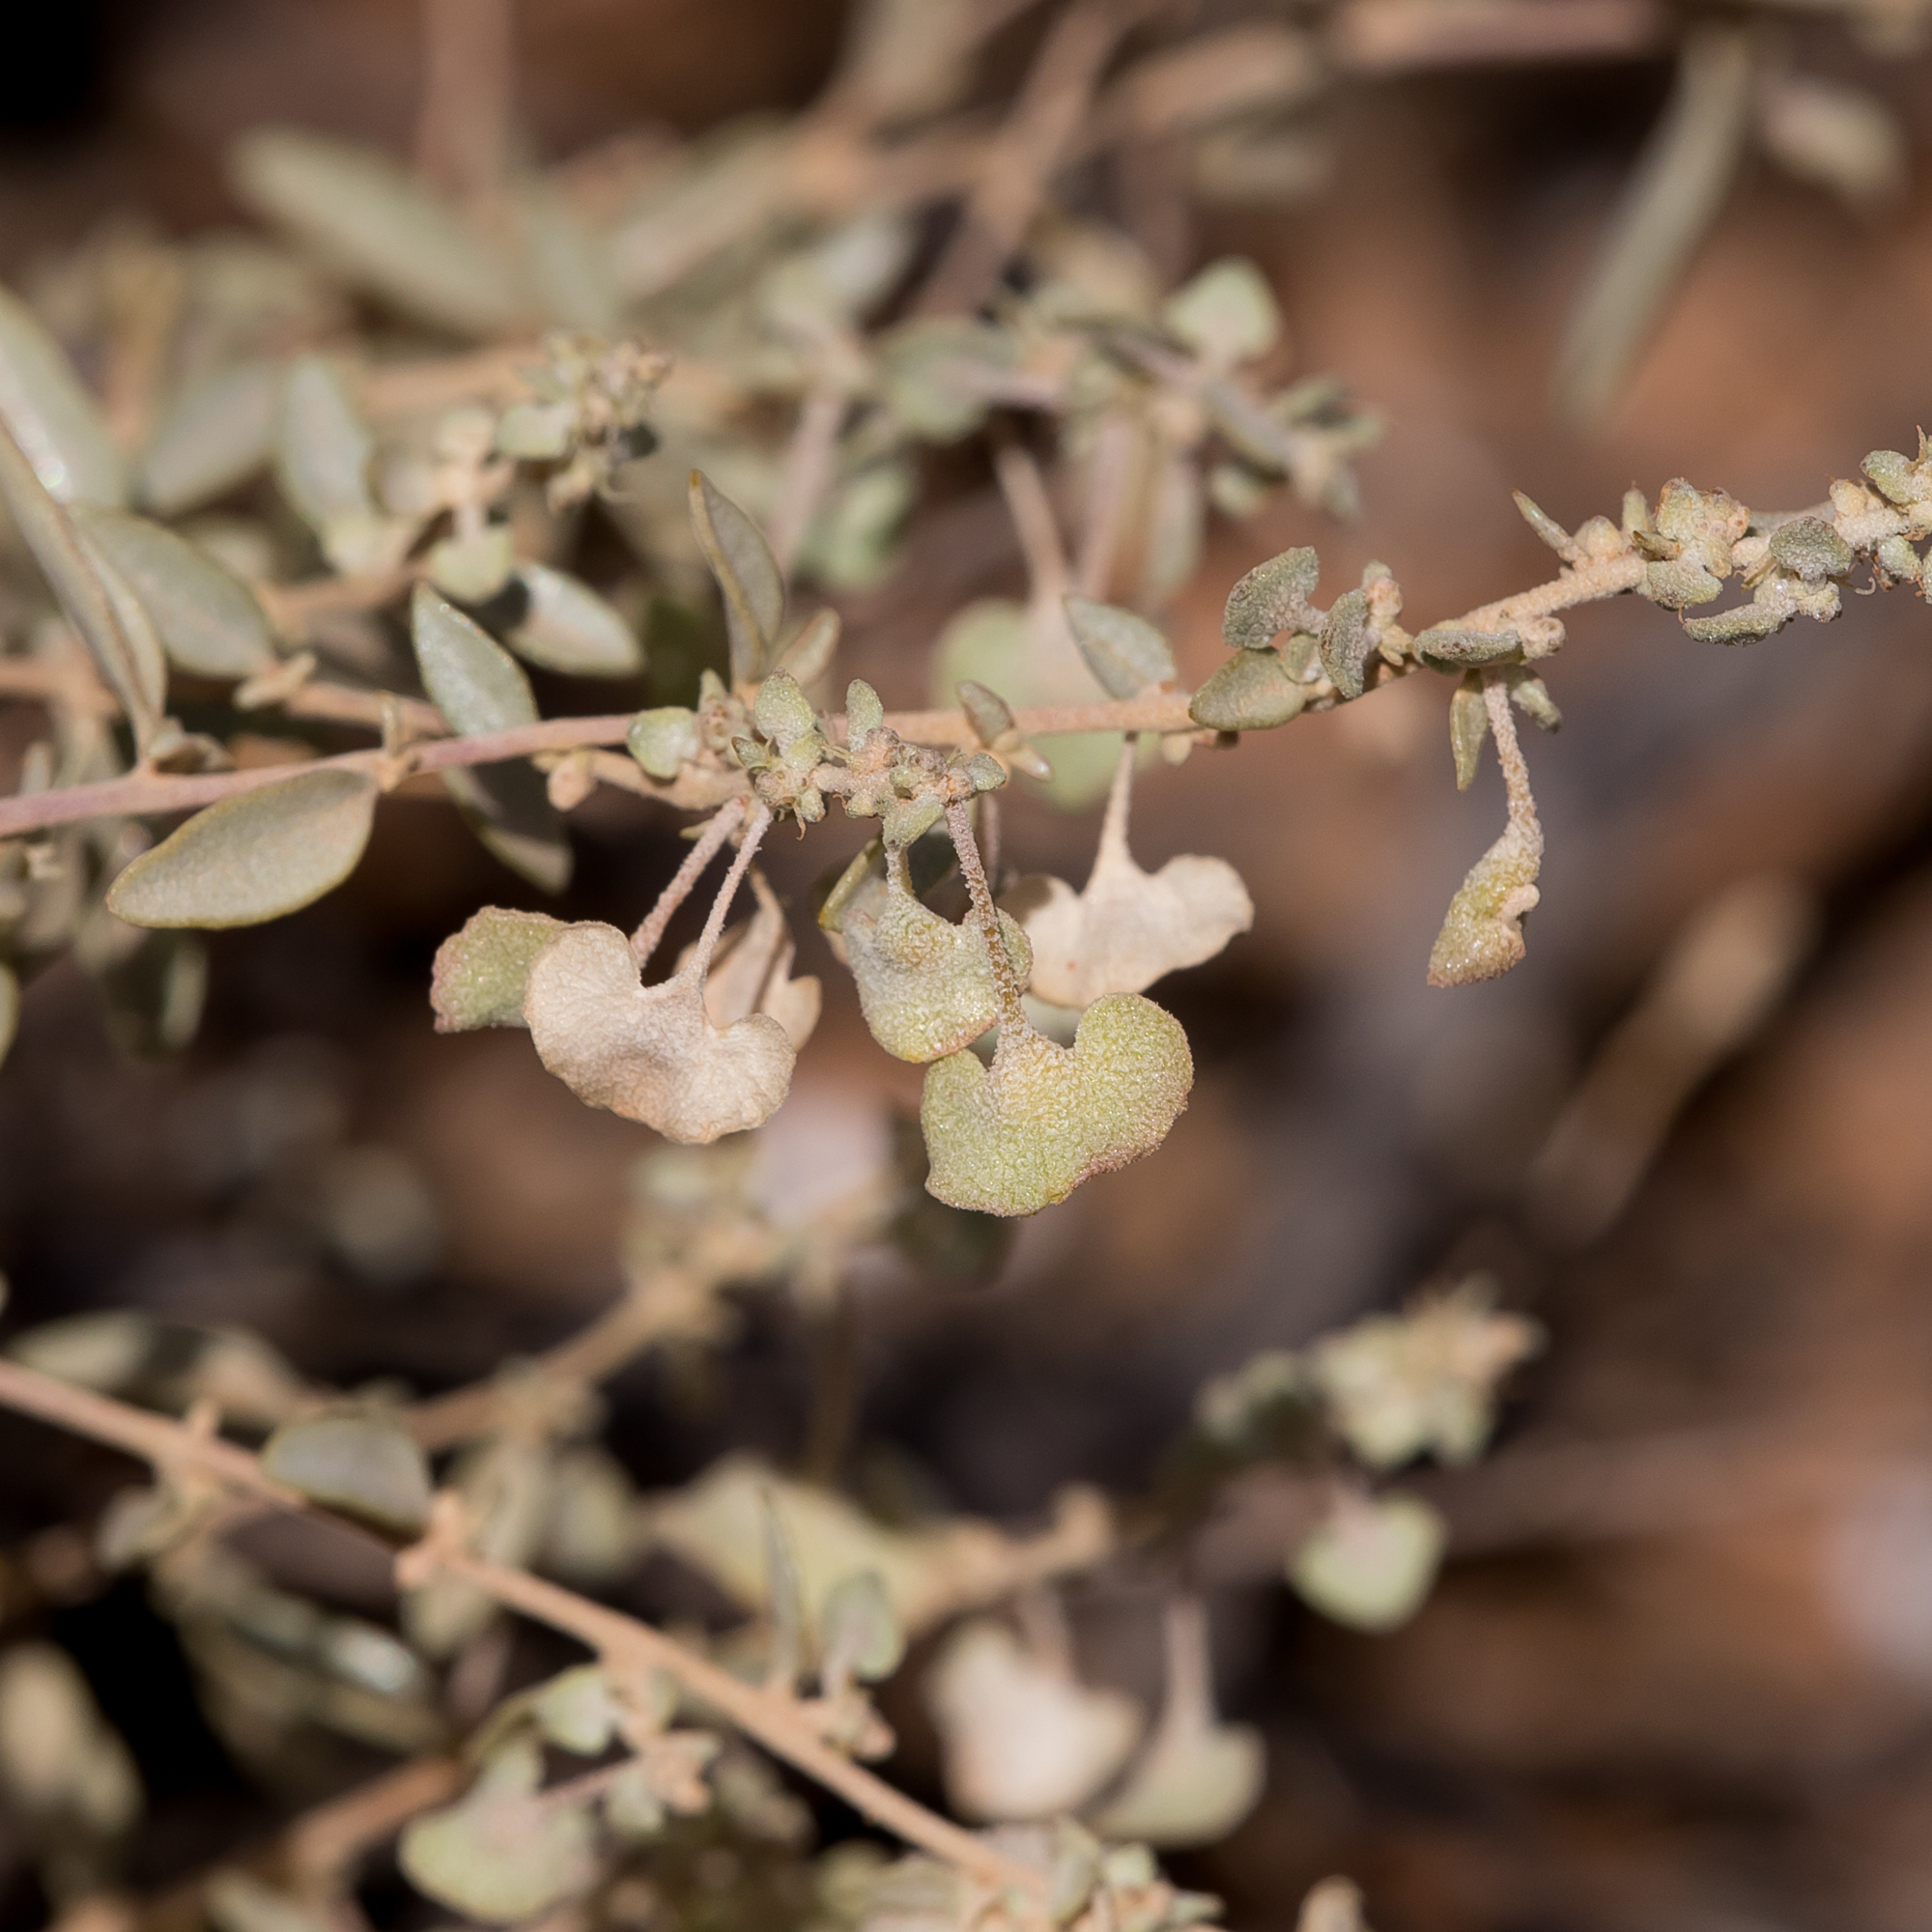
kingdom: Plantae
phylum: Tracheophyta
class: Magnoliopsida
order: Caryophyllales
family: Amaranthaceae
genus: Atriplex
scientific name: Atriplex stipitata
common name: Mallee saltbush
